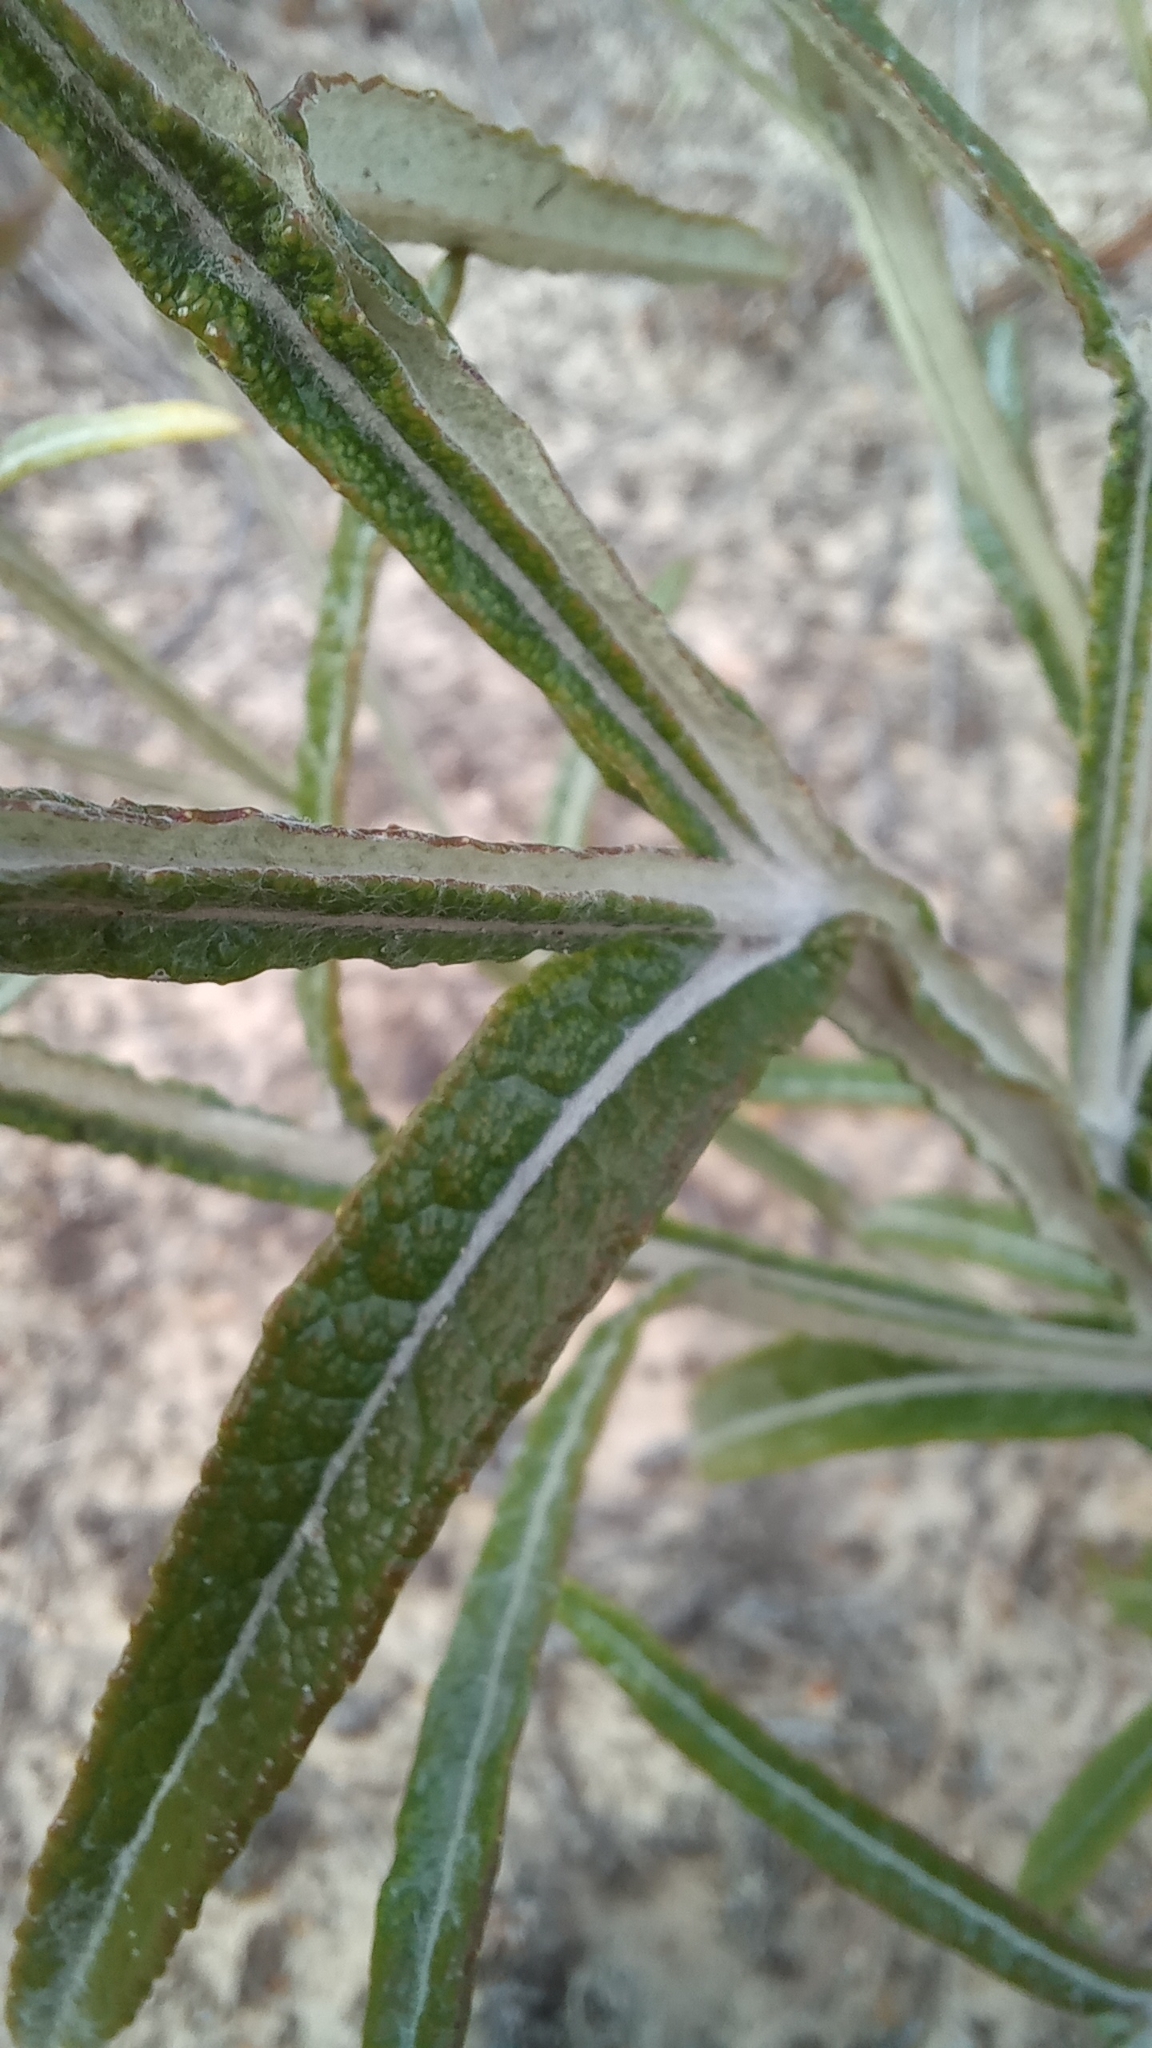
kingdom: Plantae
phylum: Tracheophyta
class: Magnoliopsida
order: Asterales
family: Asteraceae
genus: Pterocaulon
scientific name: Pterocaulon lorentzii
